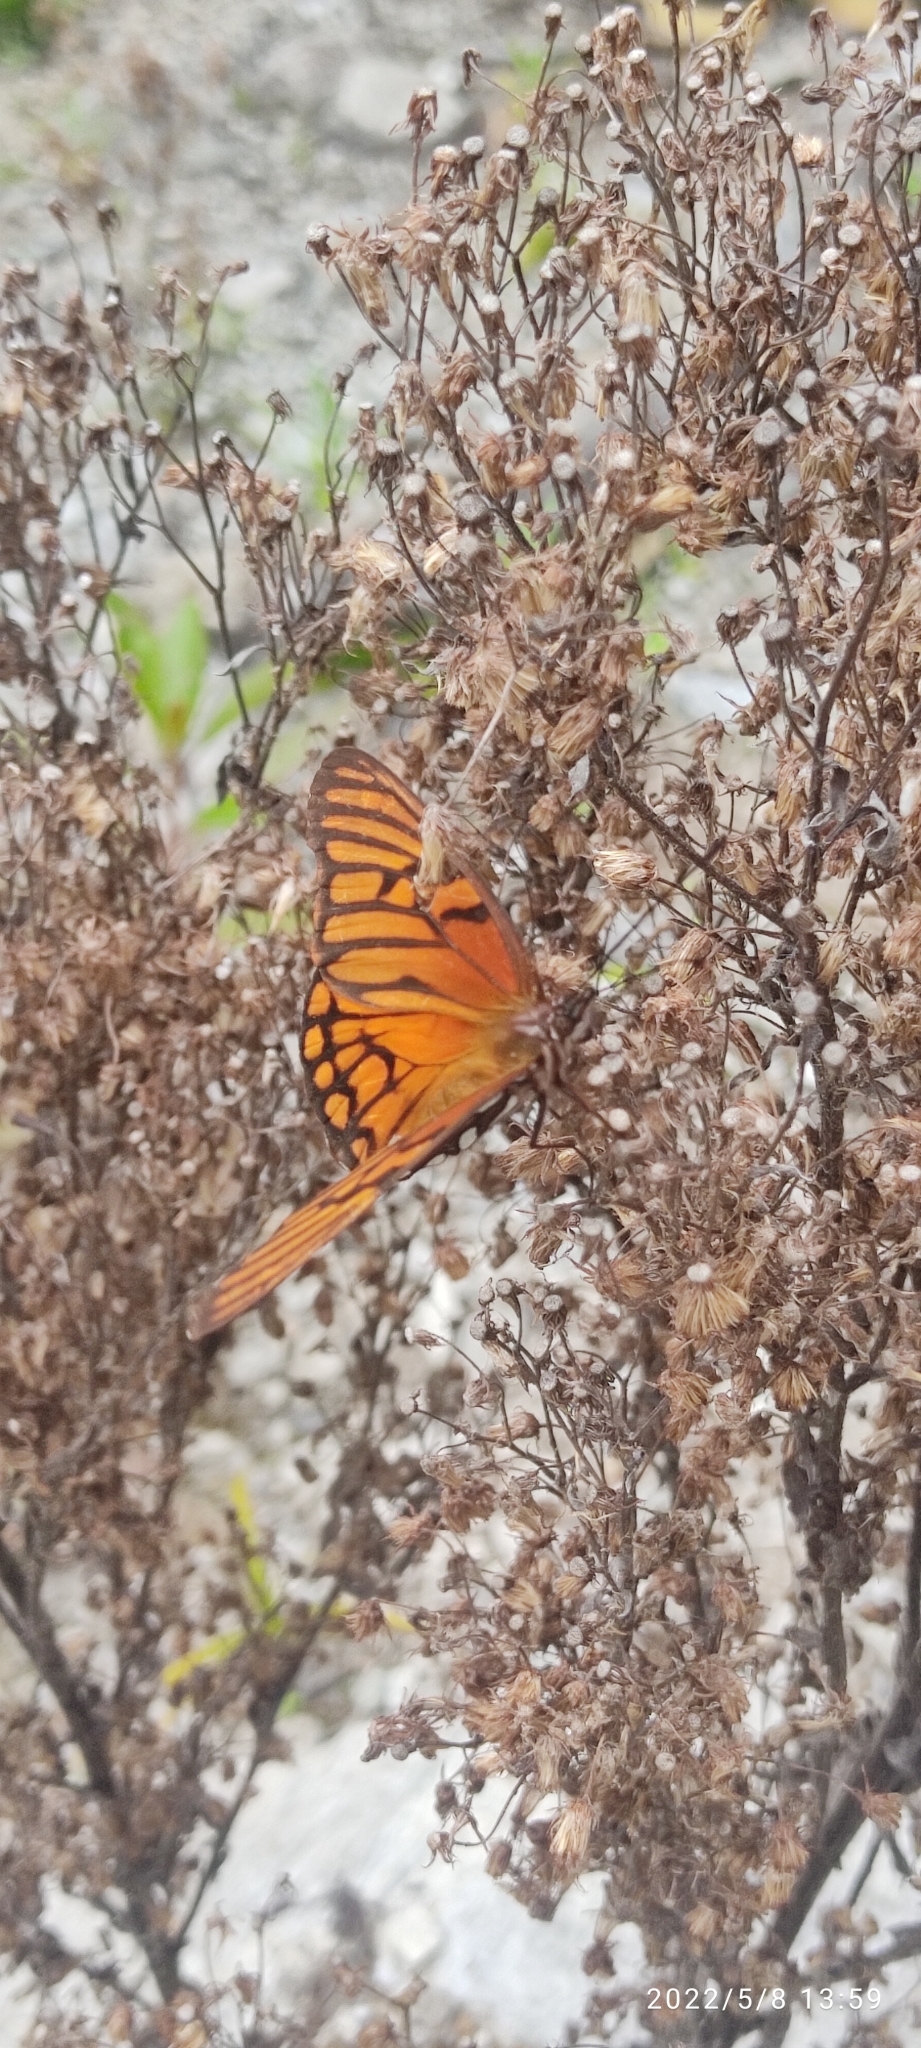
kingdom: Animalia
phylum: Arthropoda
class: Insecta
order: Lepidoptera
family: Nymphalidae
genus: Dione
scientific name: Dione glycera
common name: Andean silverspot
